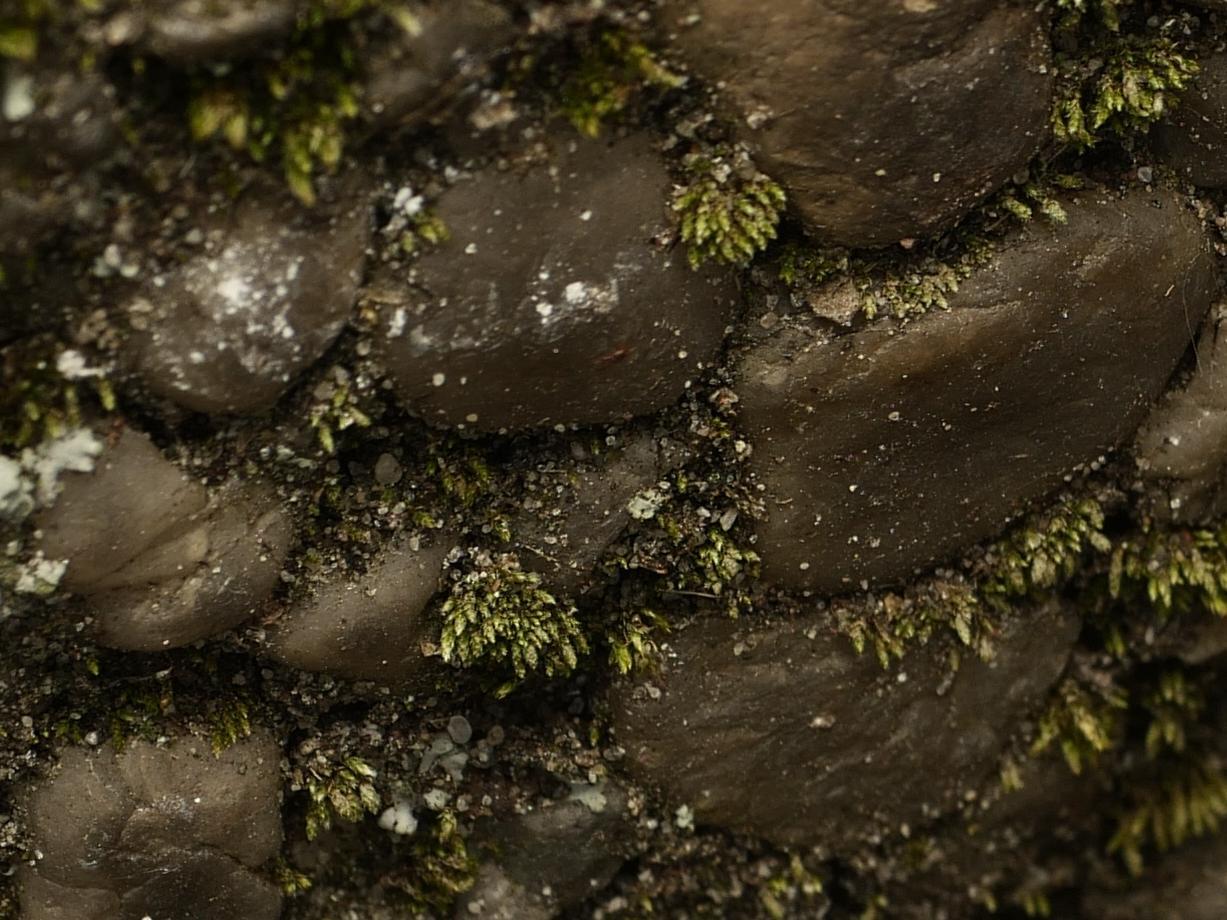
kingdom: Plantae
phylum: Bryophyta
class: Bryopsida
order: Bryales
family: Bryaceae
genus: Bryum
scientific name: Bryum argenteum
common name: Silver-moss
